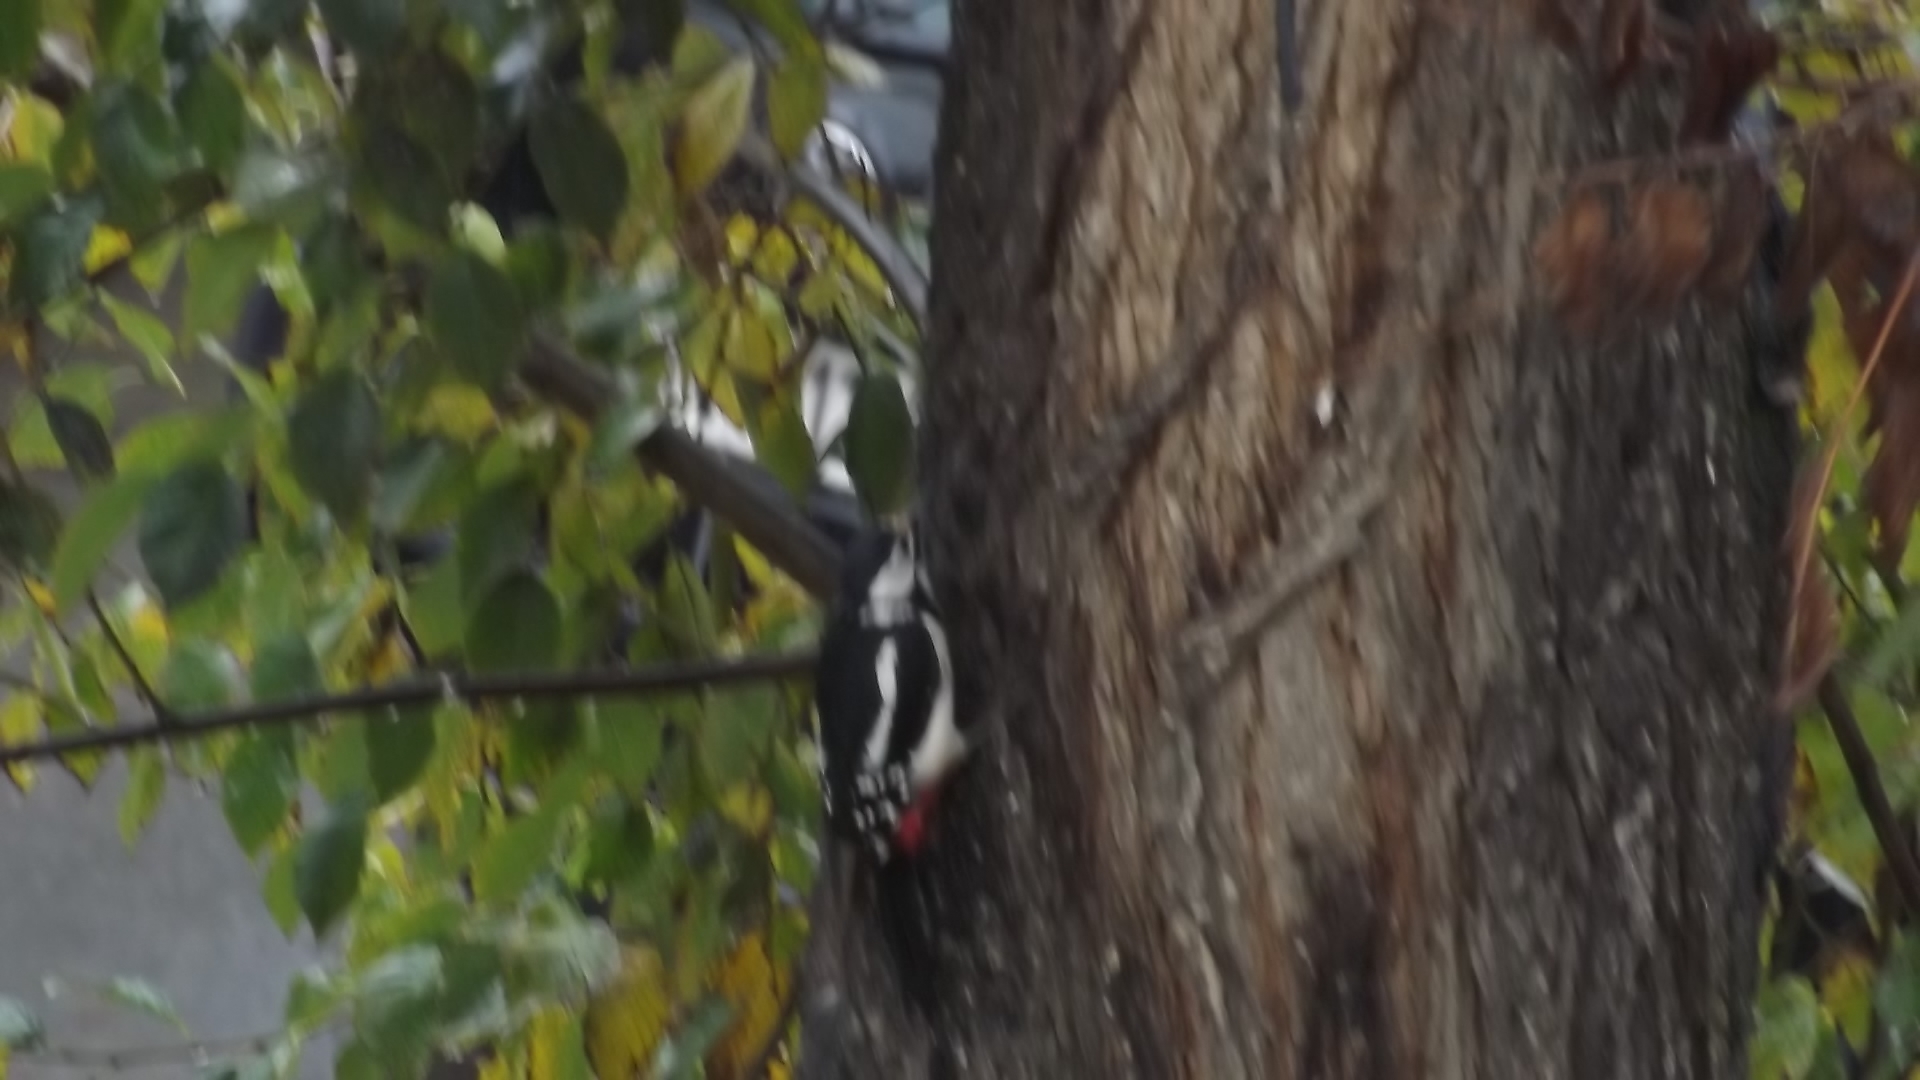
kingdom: Animalia
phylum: Chordata
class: Aves
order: Piciformes
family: Picidae
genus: Dendrocopos
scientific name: Dendrocopos major
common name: Great spotted woodpecker
